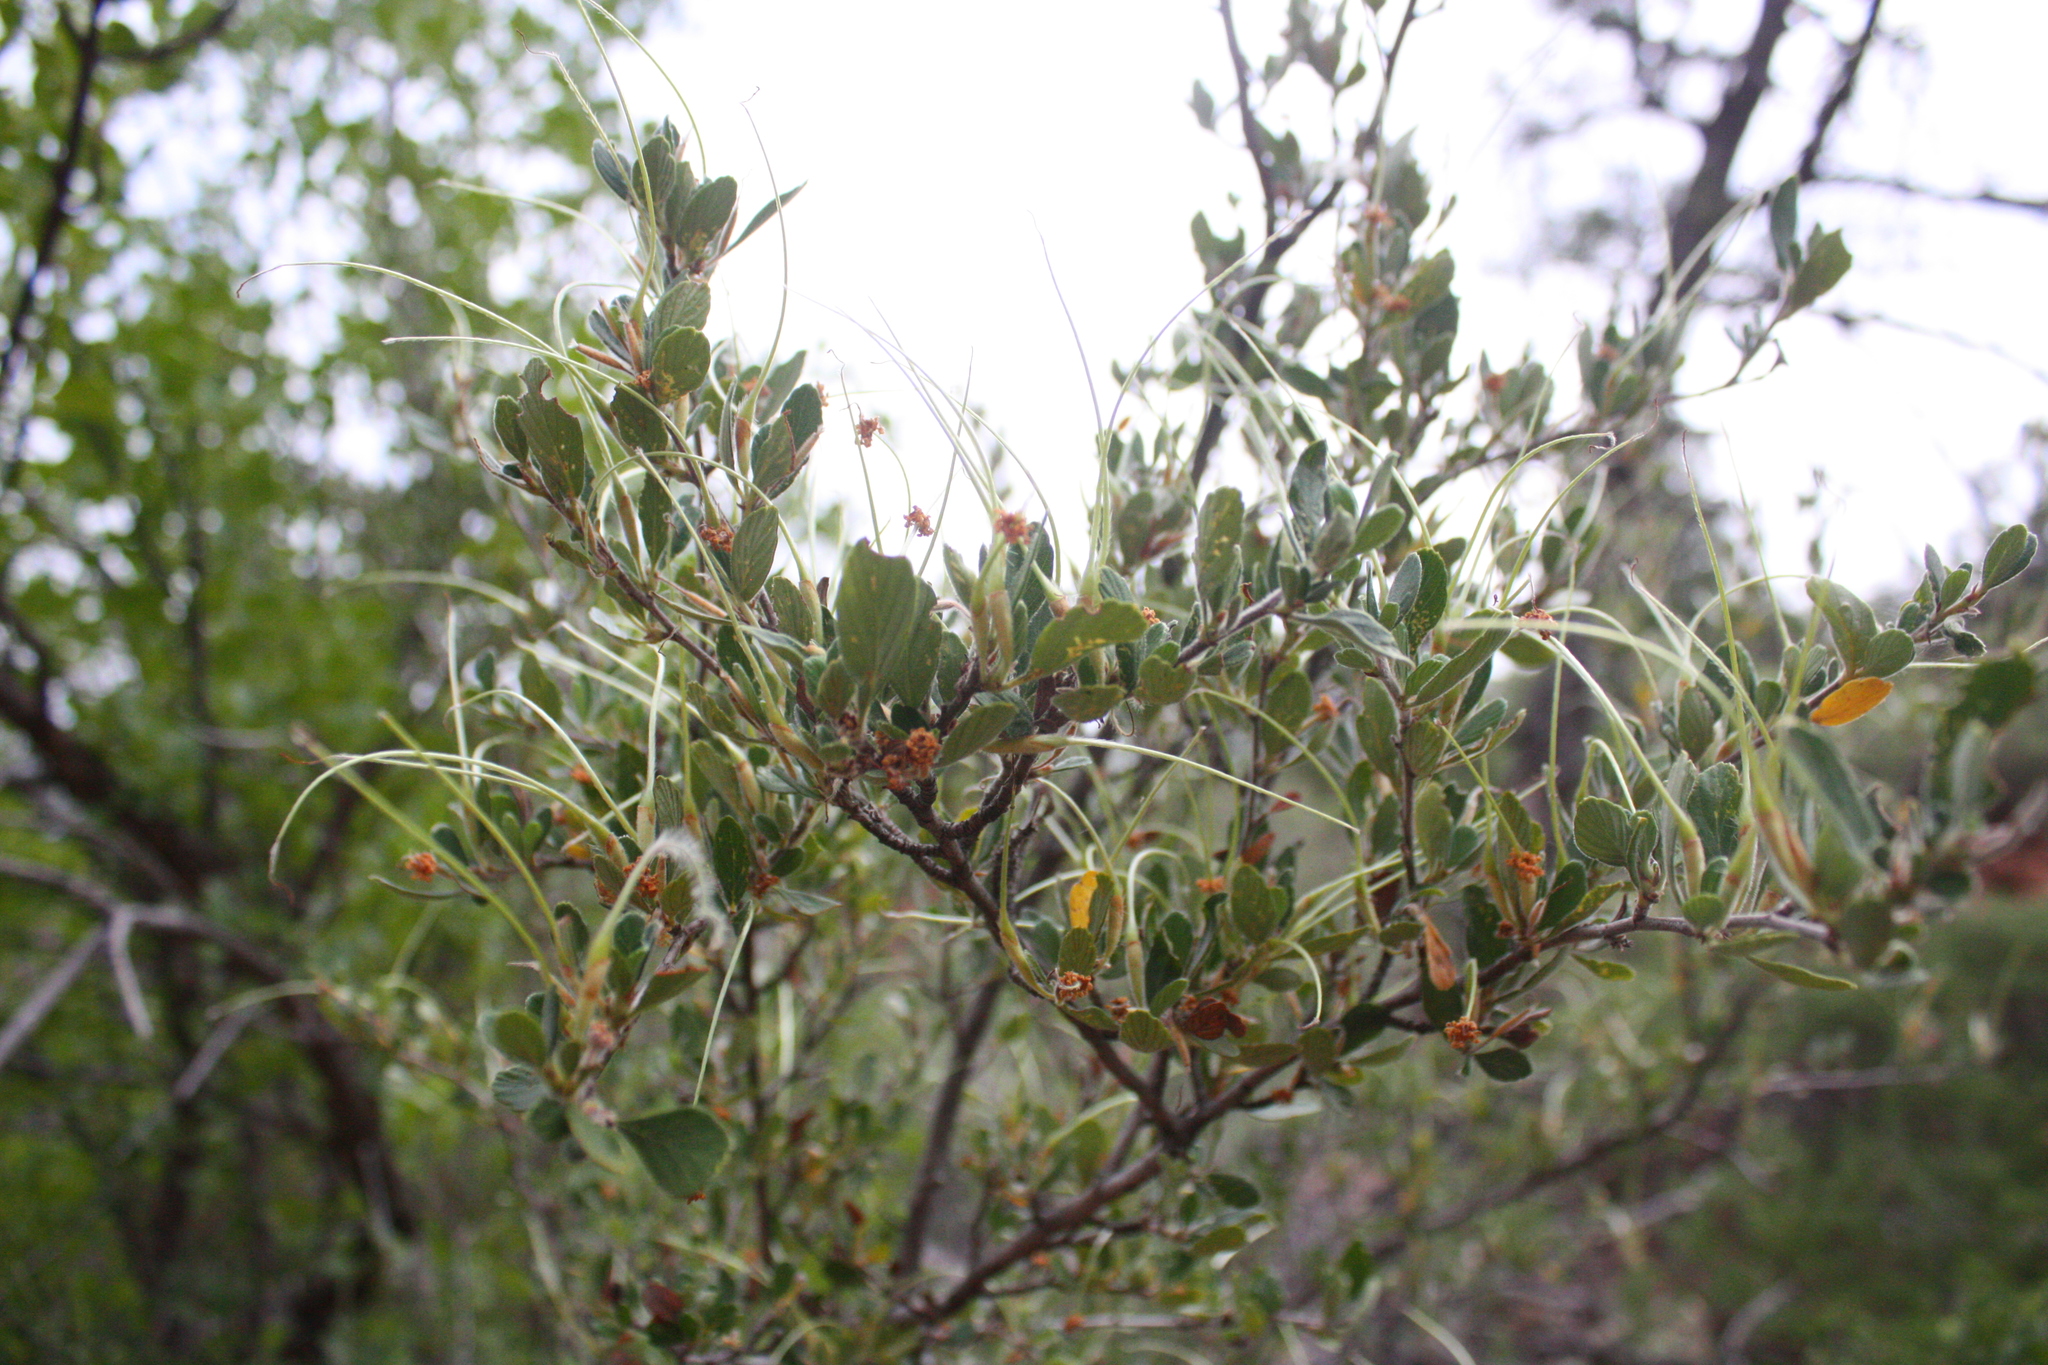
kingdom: Plantae
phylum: Tracheophyta
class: Magnoliopsida
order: Rosales
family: Rosaceae
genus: Cercocarpus
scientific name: Cercocarpus montanus
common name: Alder-leaf cercocarpus
